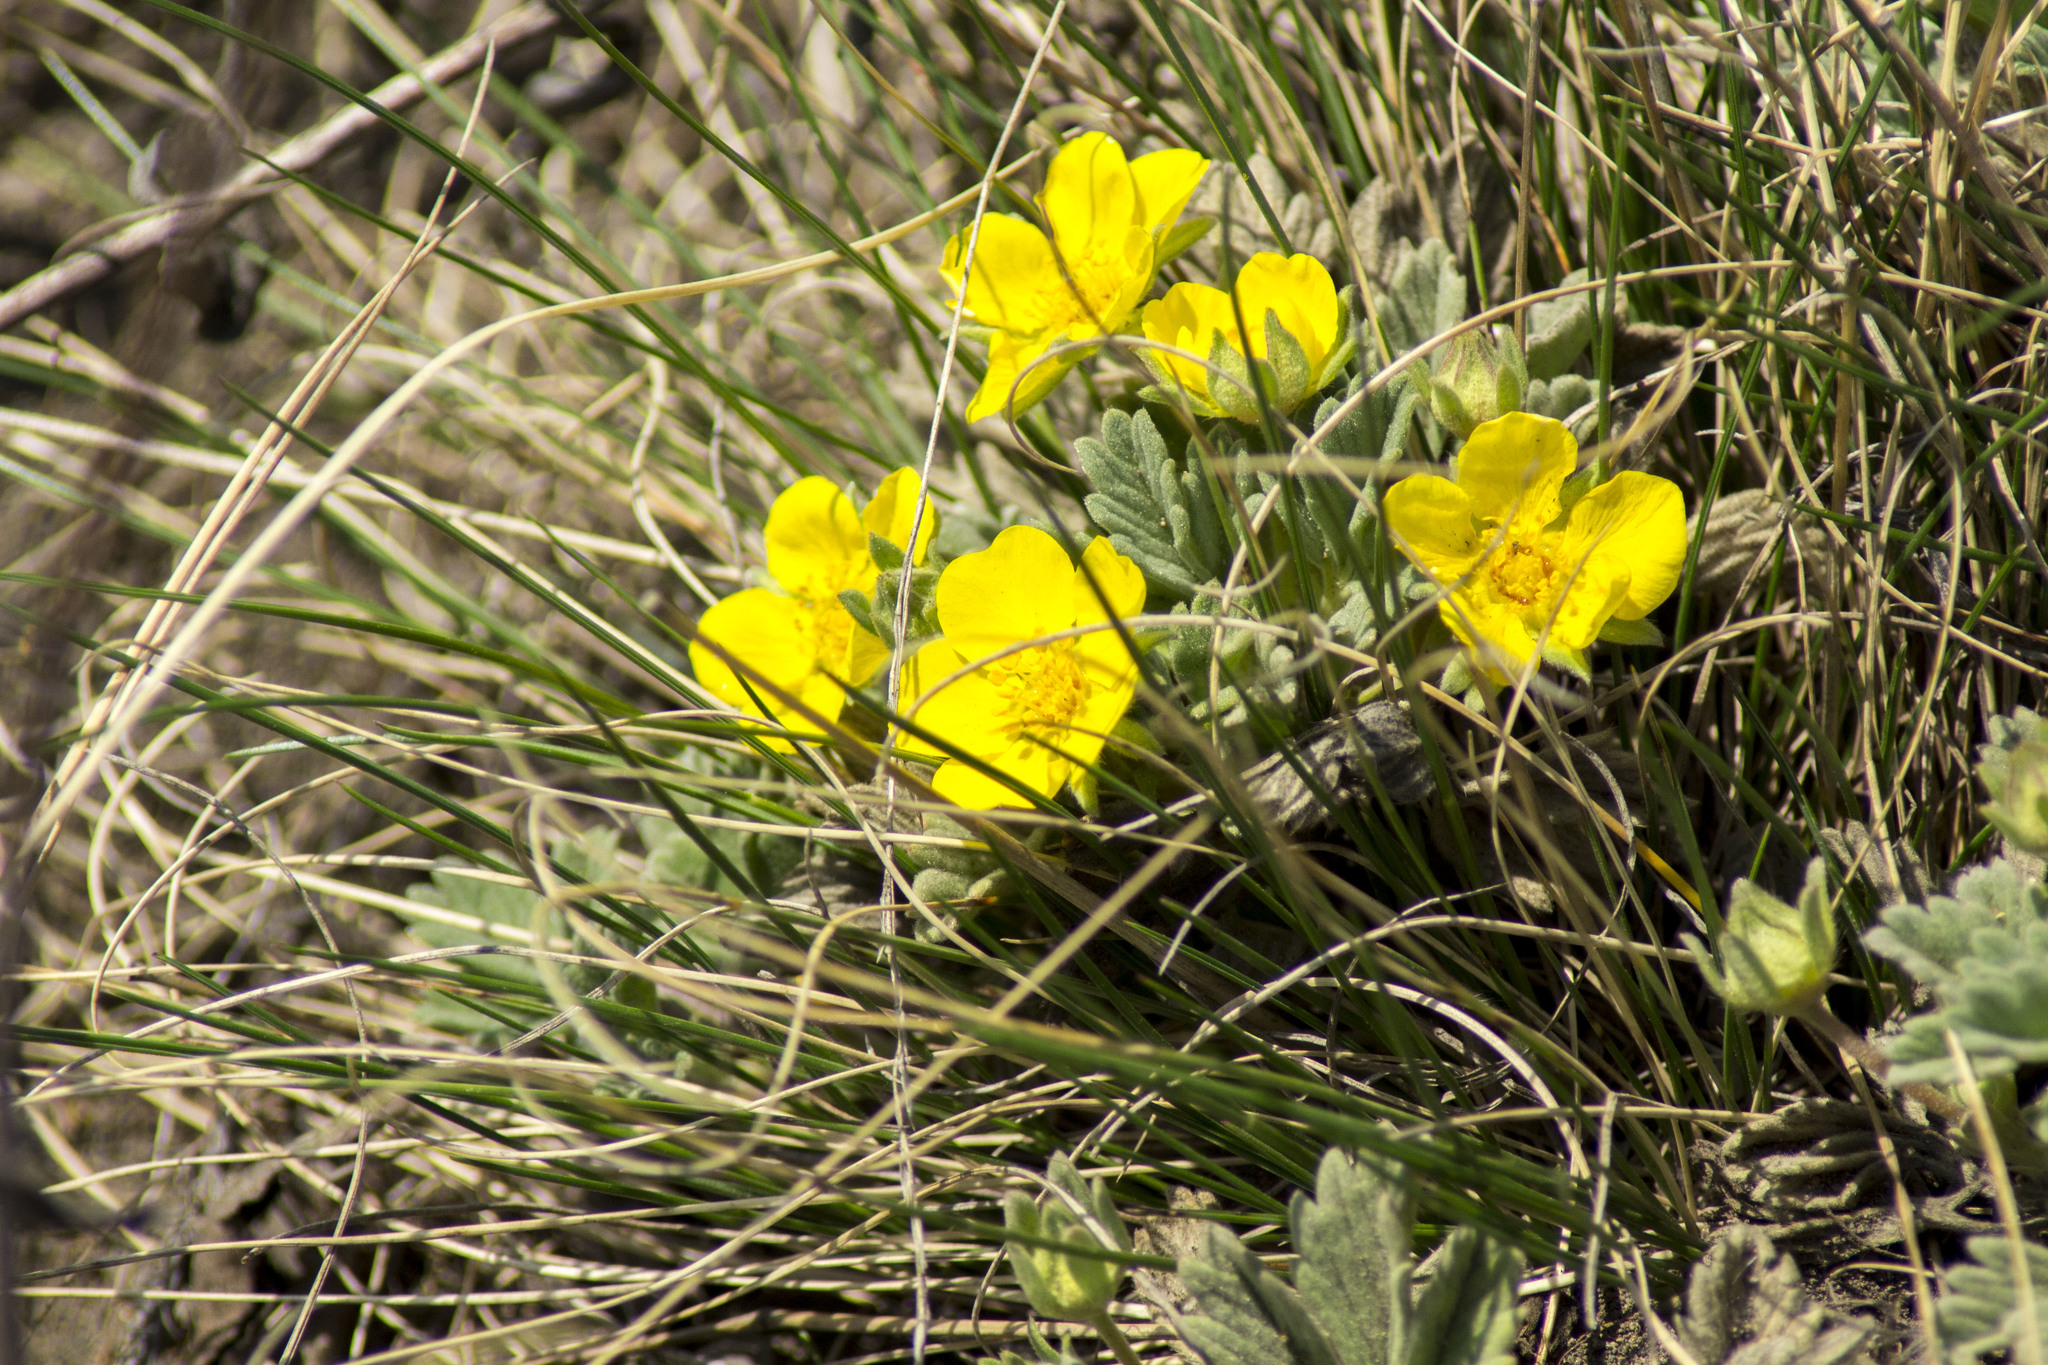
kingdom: Plantae
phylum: Tracheophyta
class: Magnoliopsida
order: Rosales
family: Rosaceae
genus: Potentilla
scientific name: Potentilla acaulis
